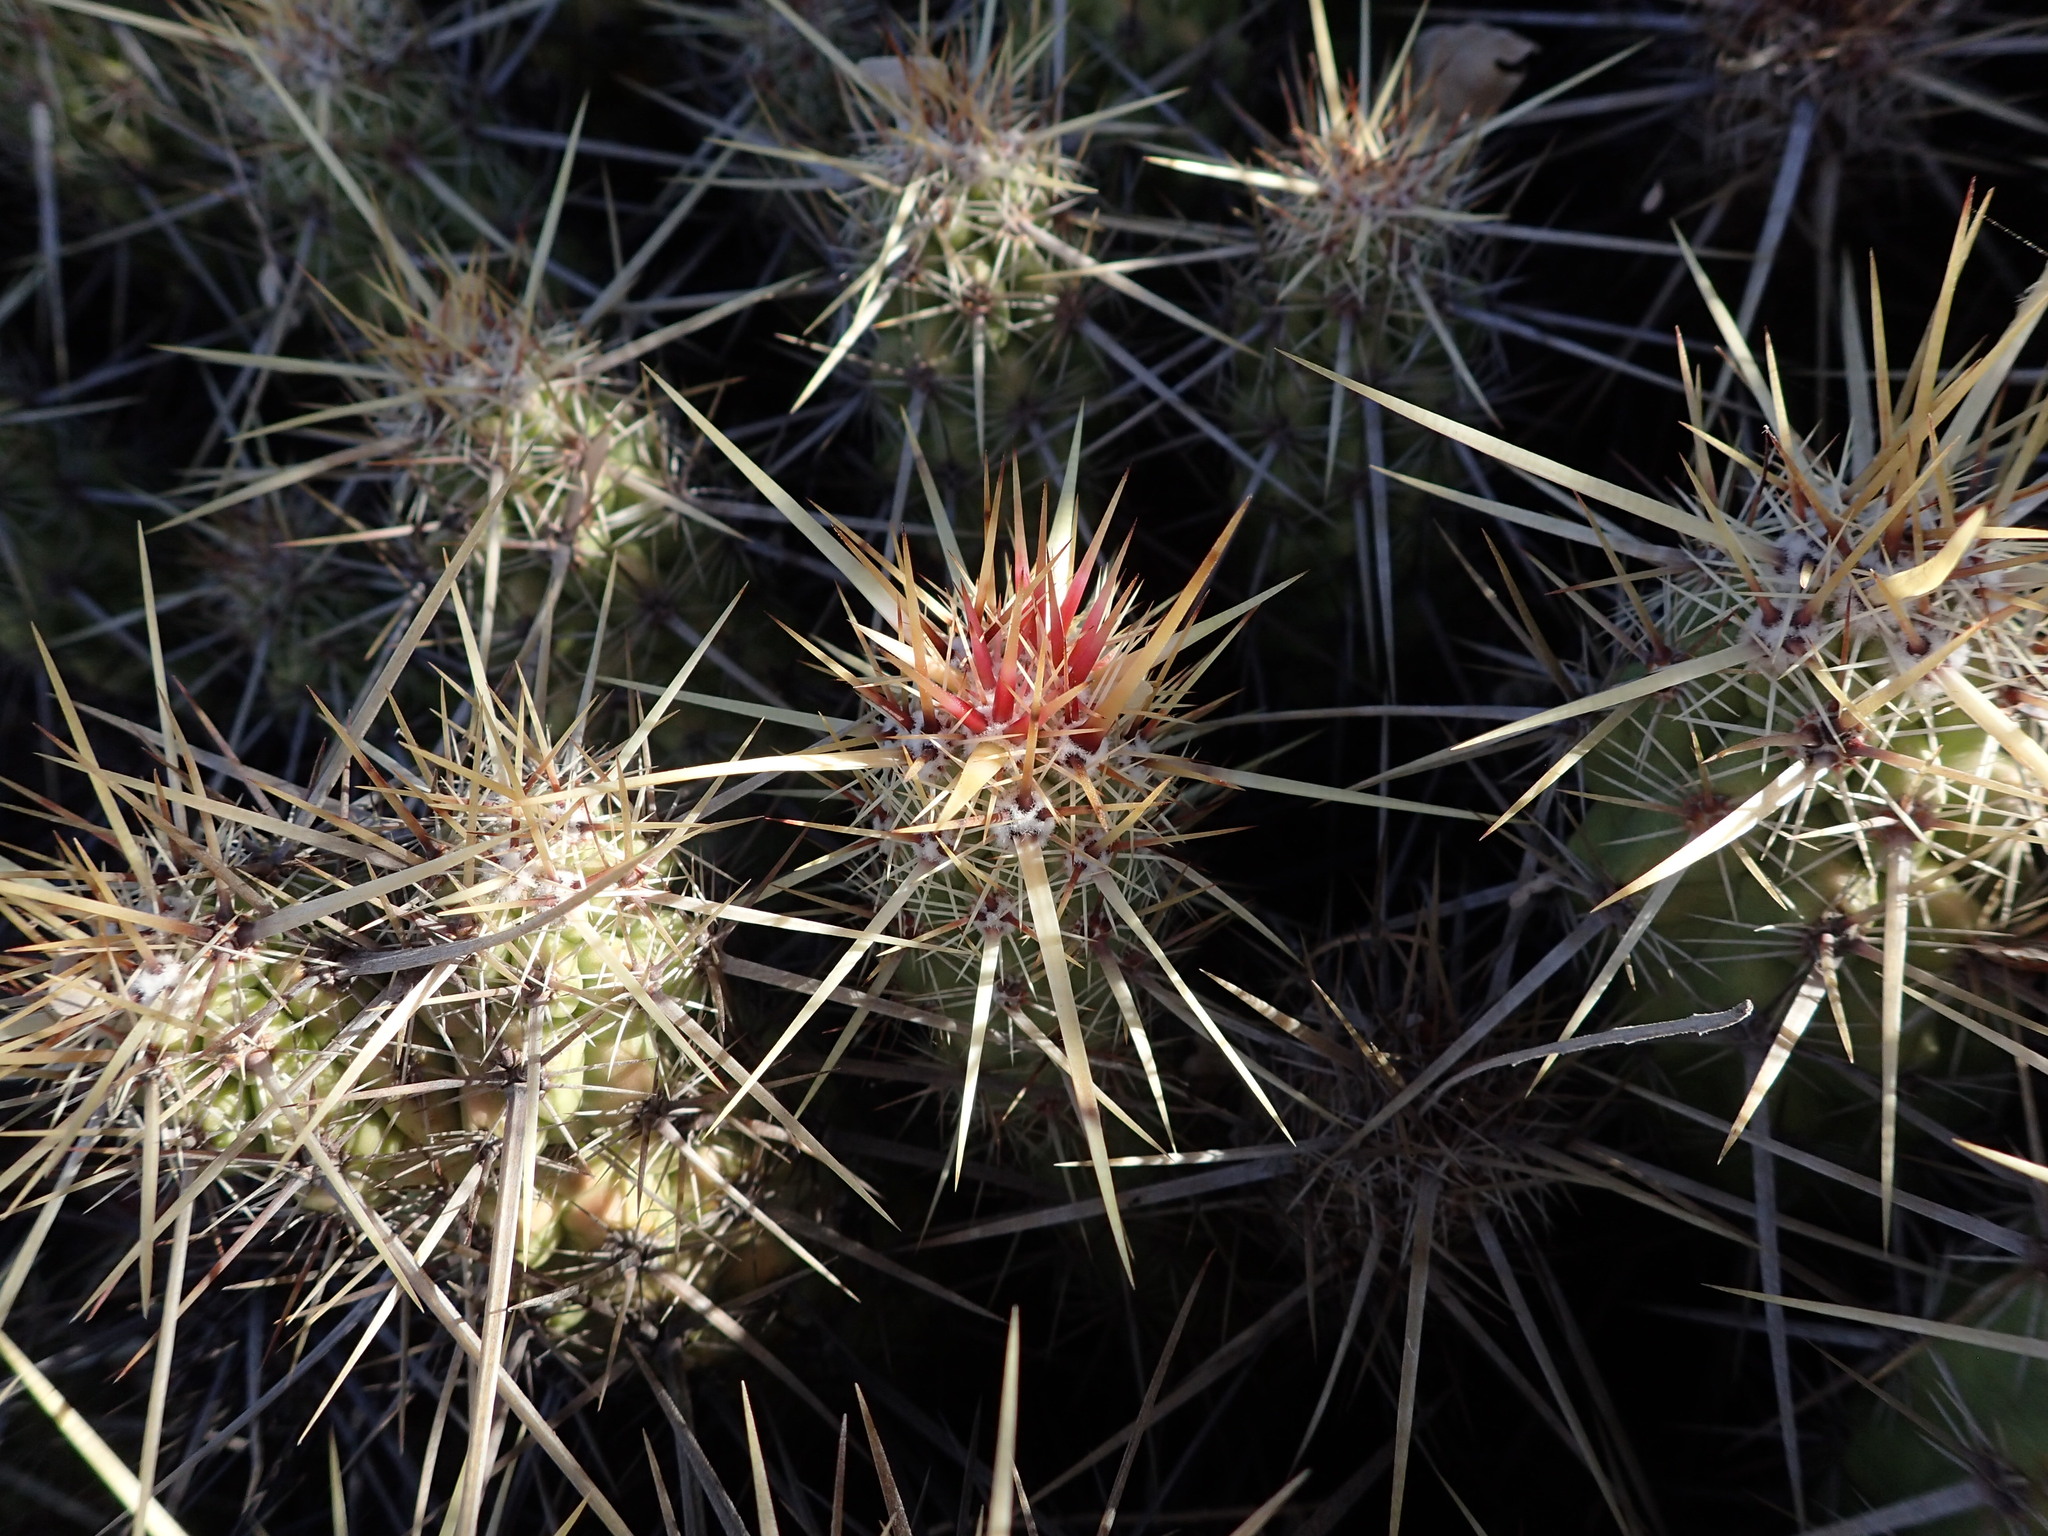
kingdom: Plantae
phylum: Tracheophyta
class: Magnoliopsida
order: Caryophyllales
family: Cactaceae
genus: Echinocereus
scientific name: Echinocereus brandegeei
